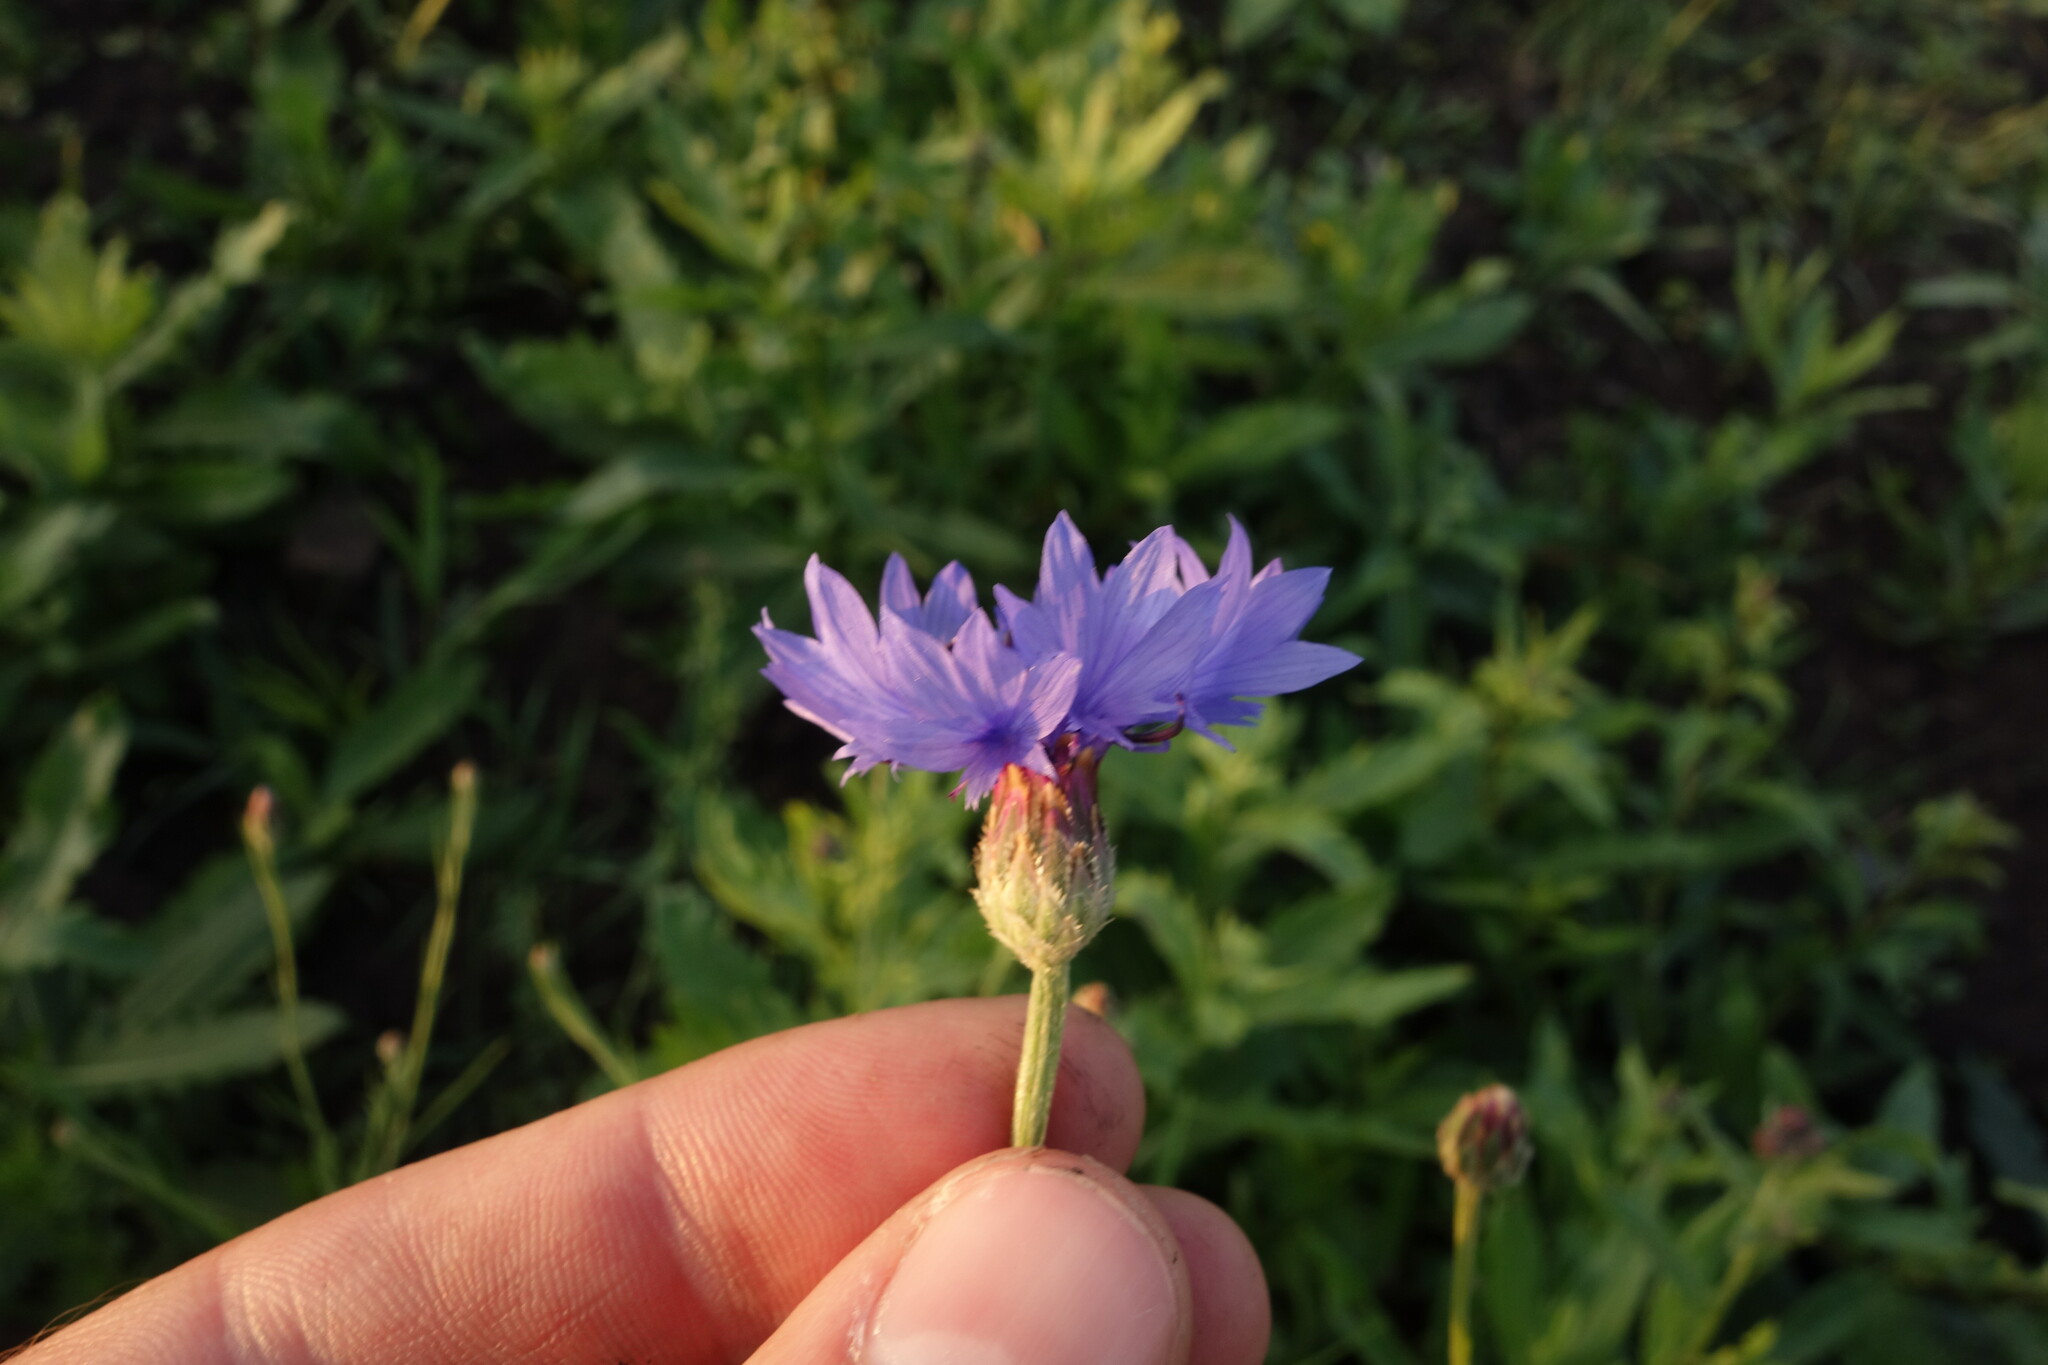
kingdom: Plantae
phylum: Tracheophyta
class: Magnoliopsida
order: Asterales
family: Asteraceae
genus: Centaurea
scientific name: Centaurea cyanus
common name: Cornflower
